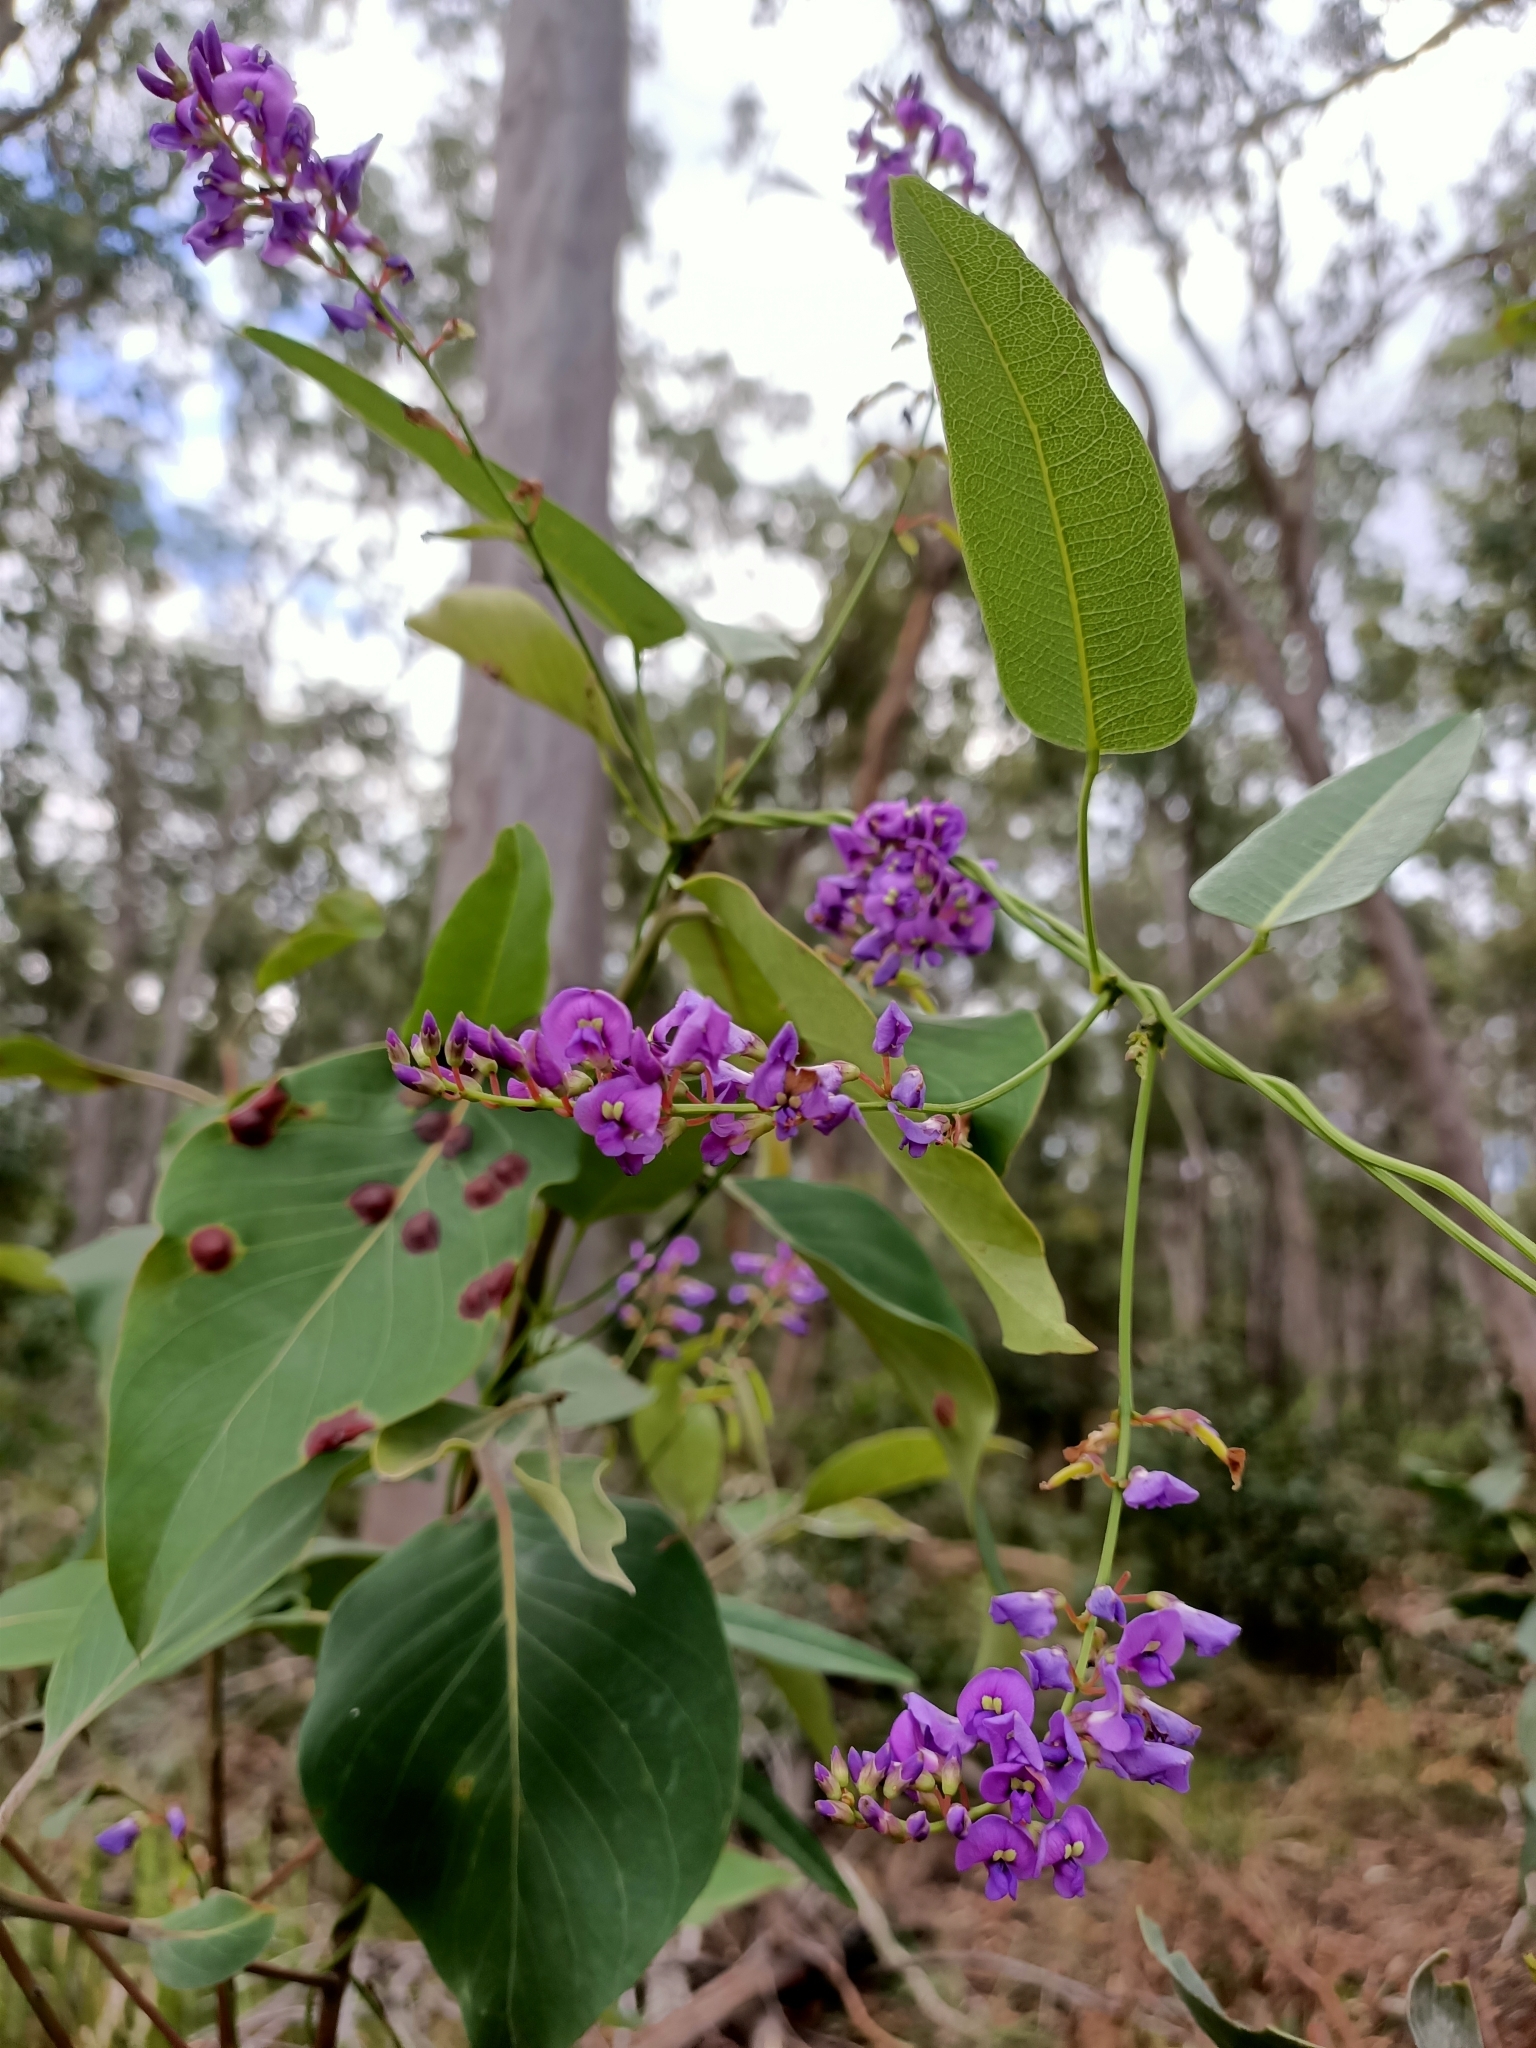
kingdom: Plantae
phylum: Tracheophyta
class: Magnoliopsida
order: Fabales
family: Fabaceae
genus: Hardenbergia
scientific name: Hardenbergia violacea
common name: Coral-pea
